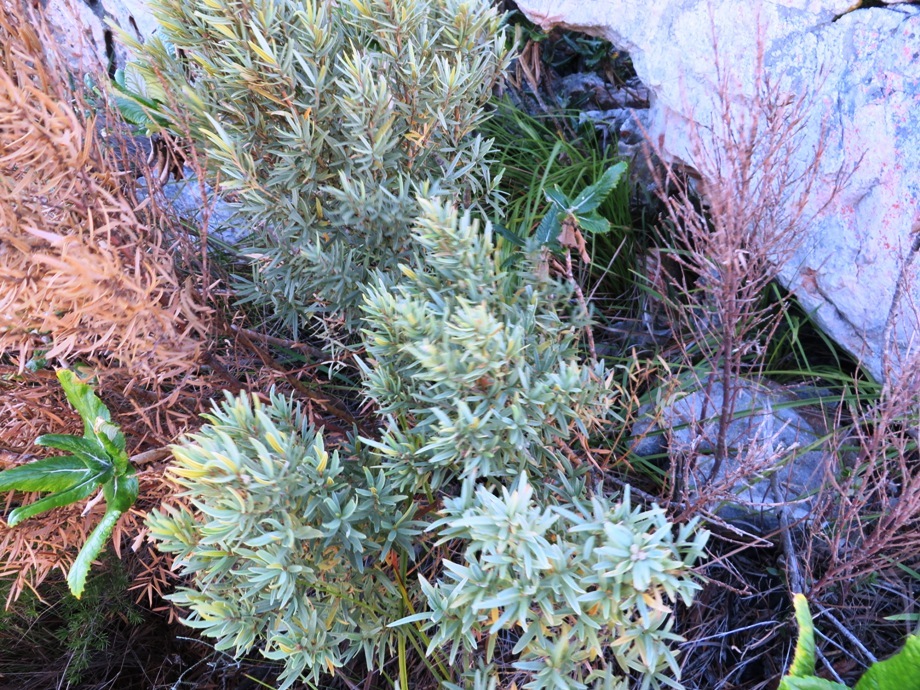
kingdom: Plantae
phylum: Tracheophyta
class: Magnoliopsida
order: Cornales
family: Grubbiaceae
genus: Grubbia
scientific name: Grubbia tomentosa
